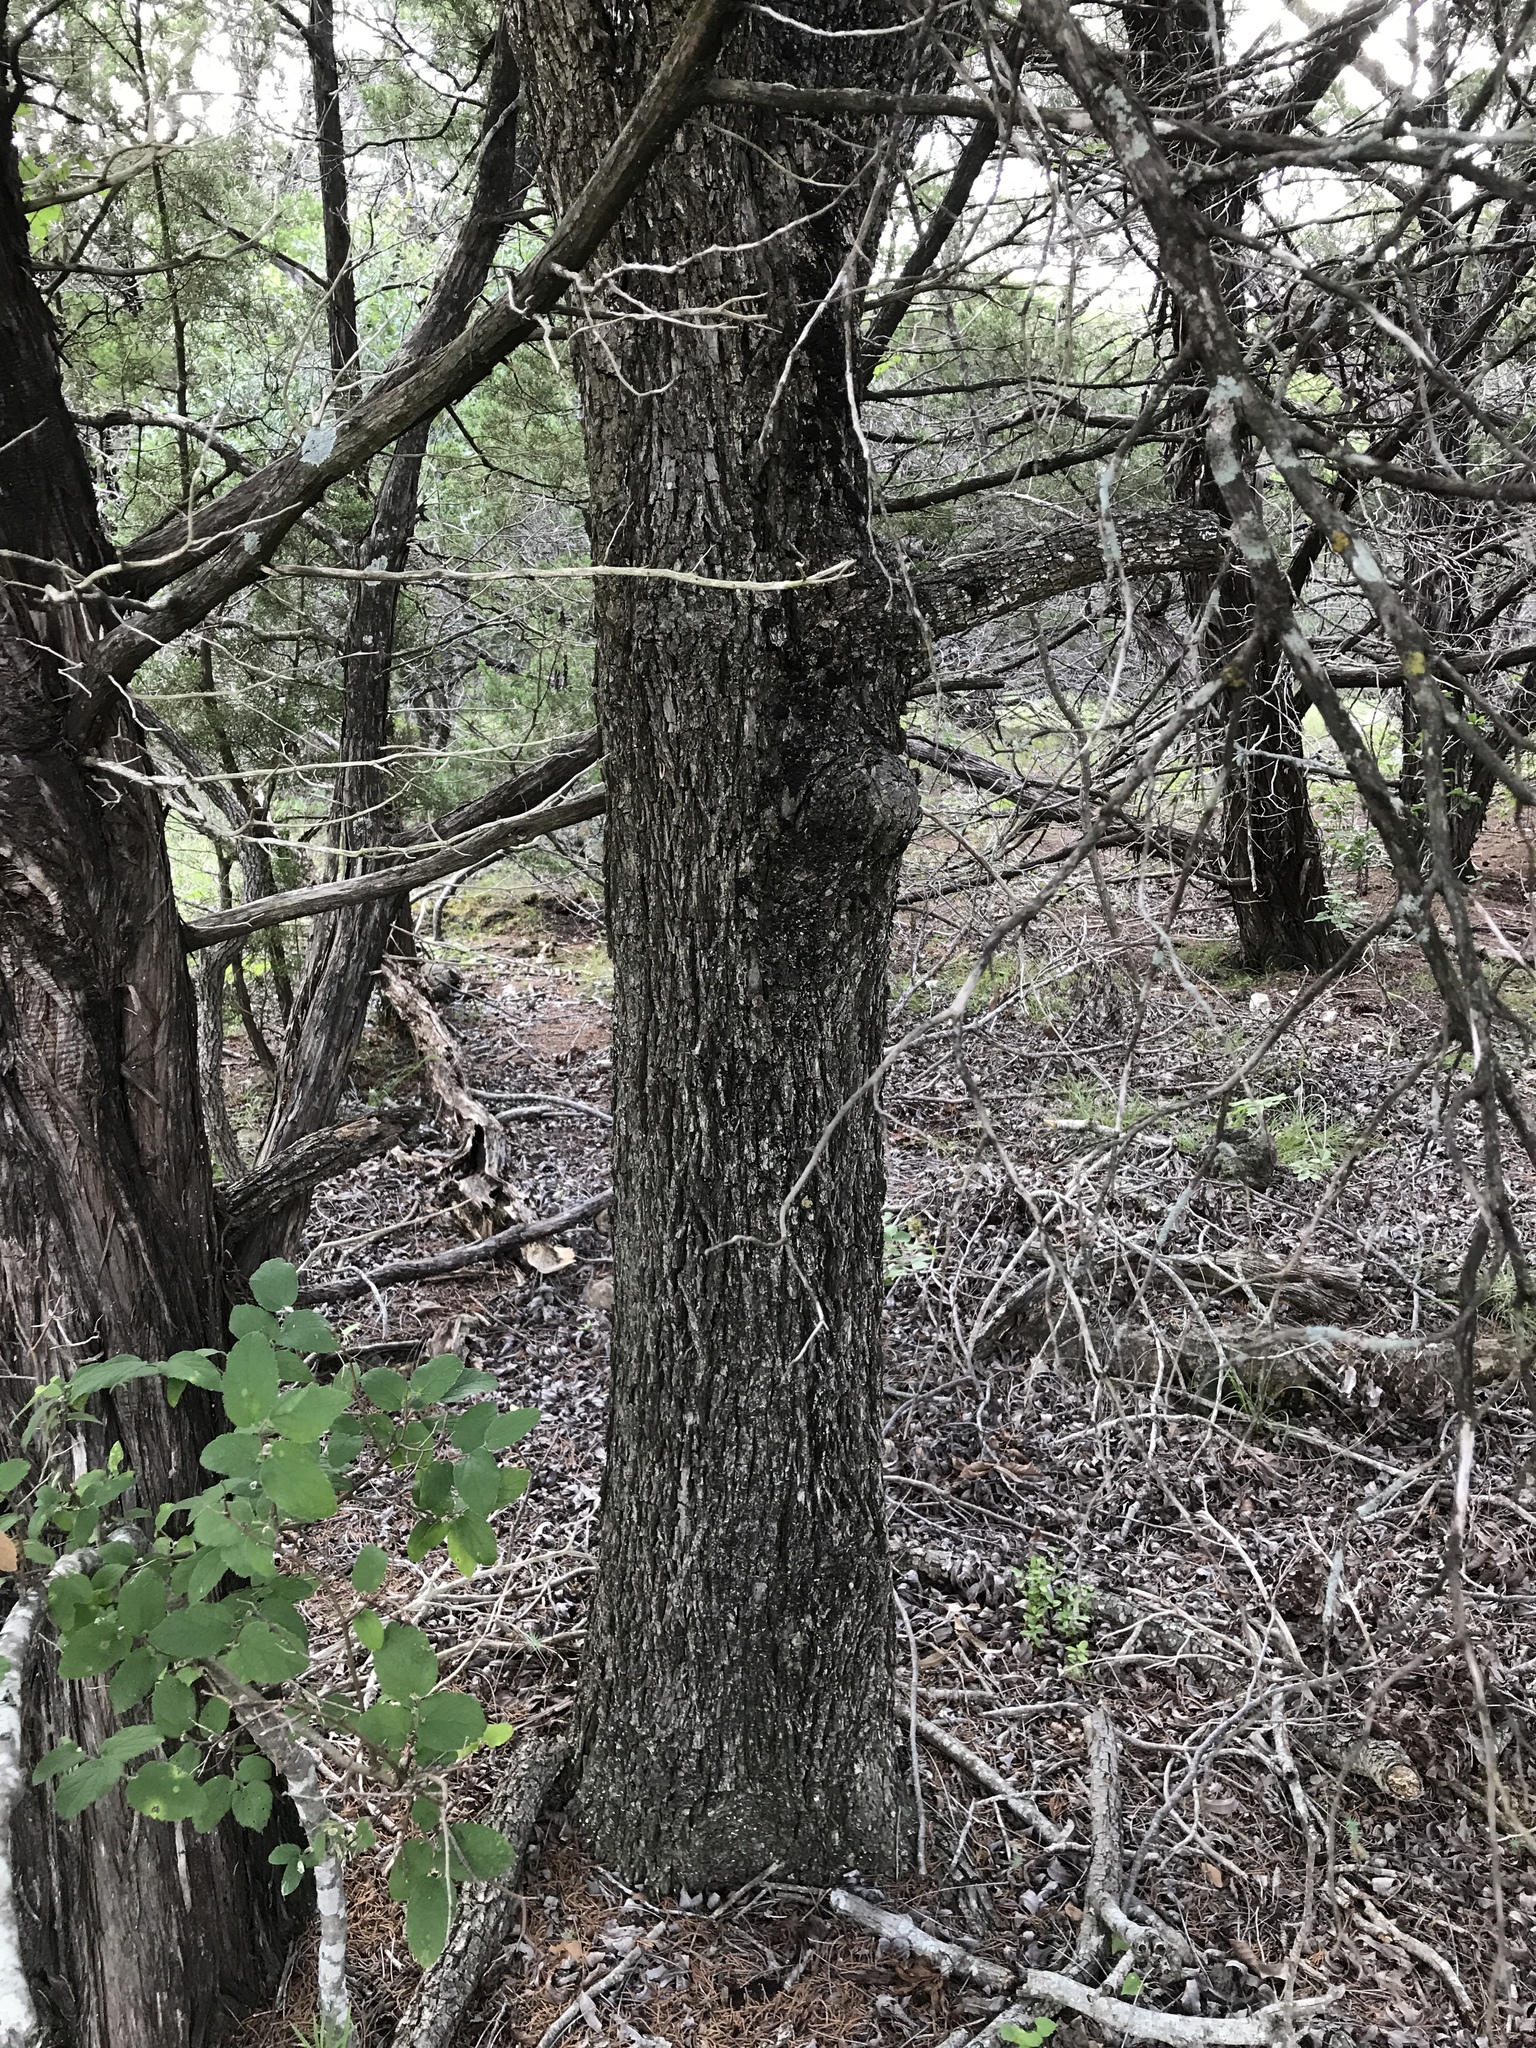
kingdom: Plantae
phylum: Tracheophyta
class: Magnoliopsida
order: Fagales
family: Juglandaceae
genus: Carya
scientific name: Carya illinoinensis
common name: Pecan
